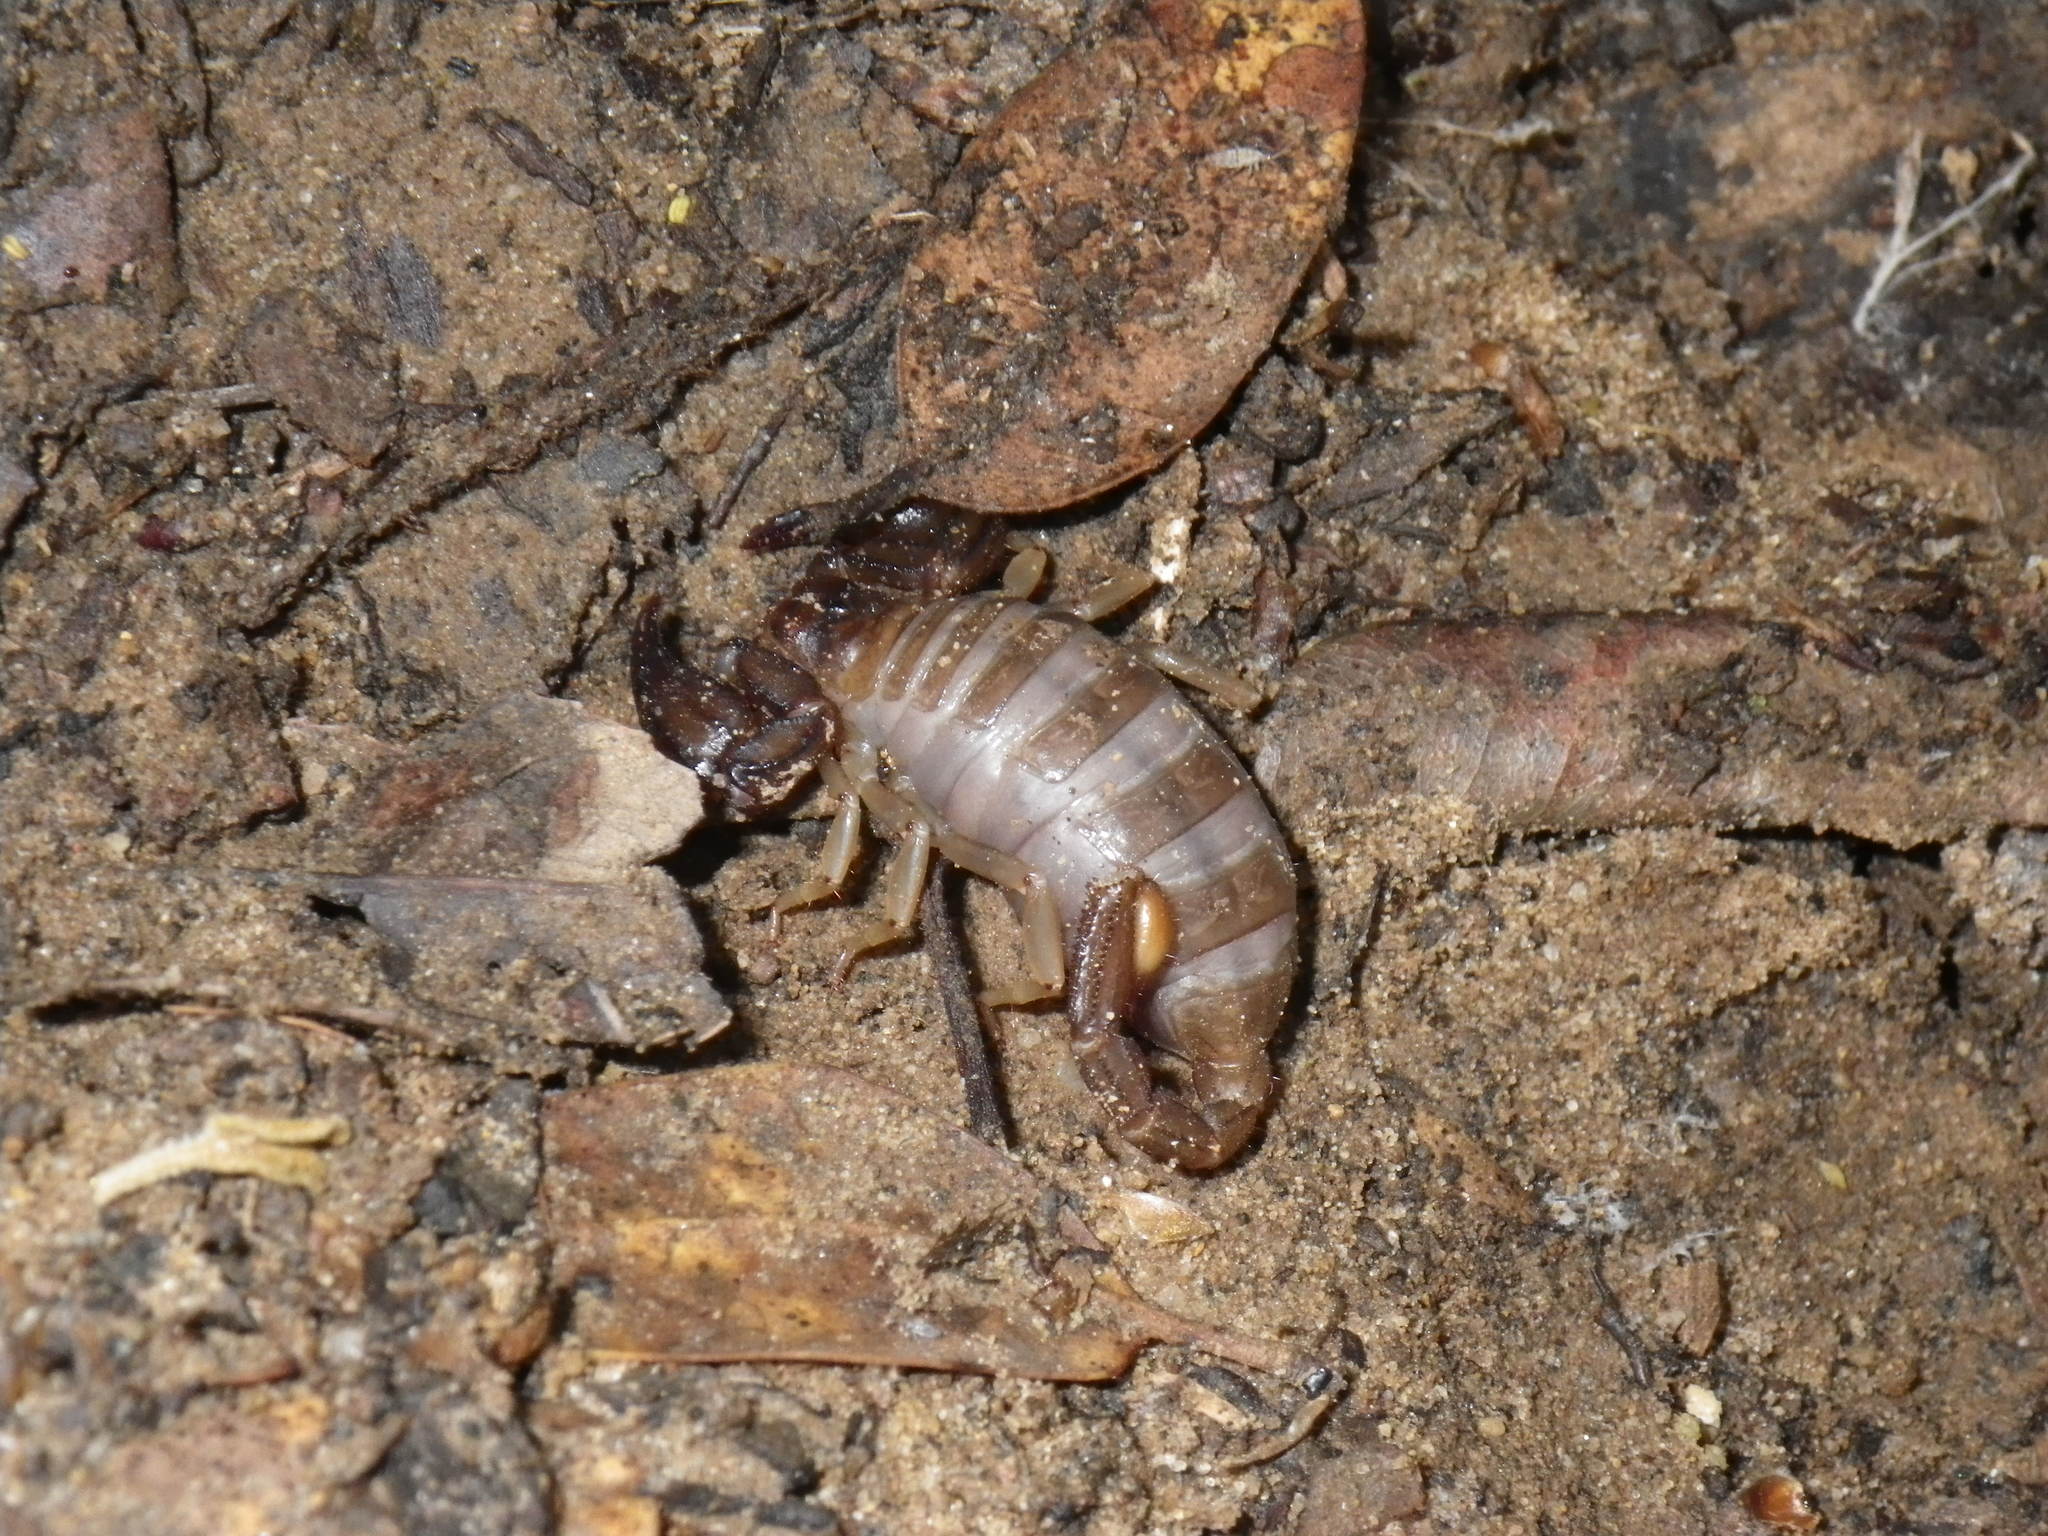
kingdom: Animalia
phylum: Arthropoda
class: Arachnida
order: Scorpiones
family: Chactidae
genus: Uroctonus
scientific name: Uroctonus mordax
